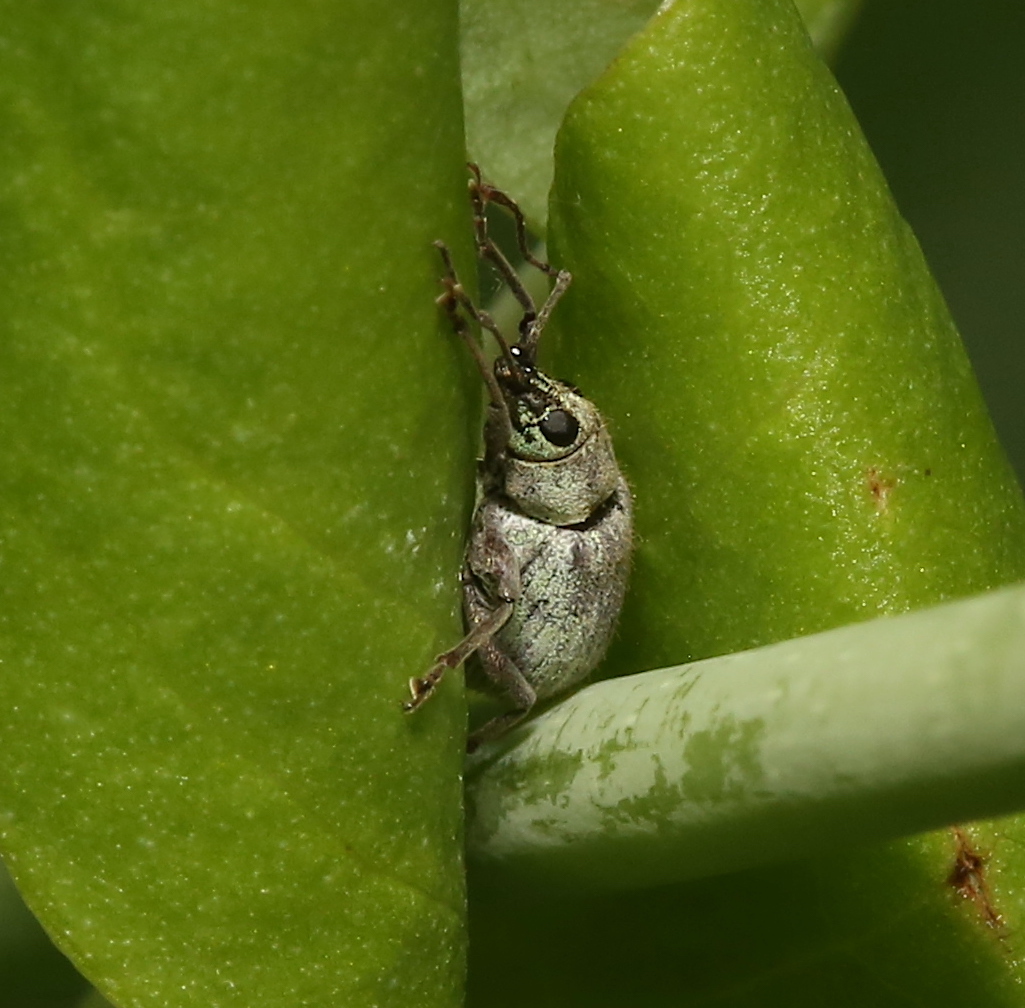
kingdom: Animalia
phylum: Arthropoda
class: Insecta
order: Coleoptera
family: Curculionidae
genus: Cyrtepistomus
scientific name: Cyrtepistomus castaneus
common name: Weevil
